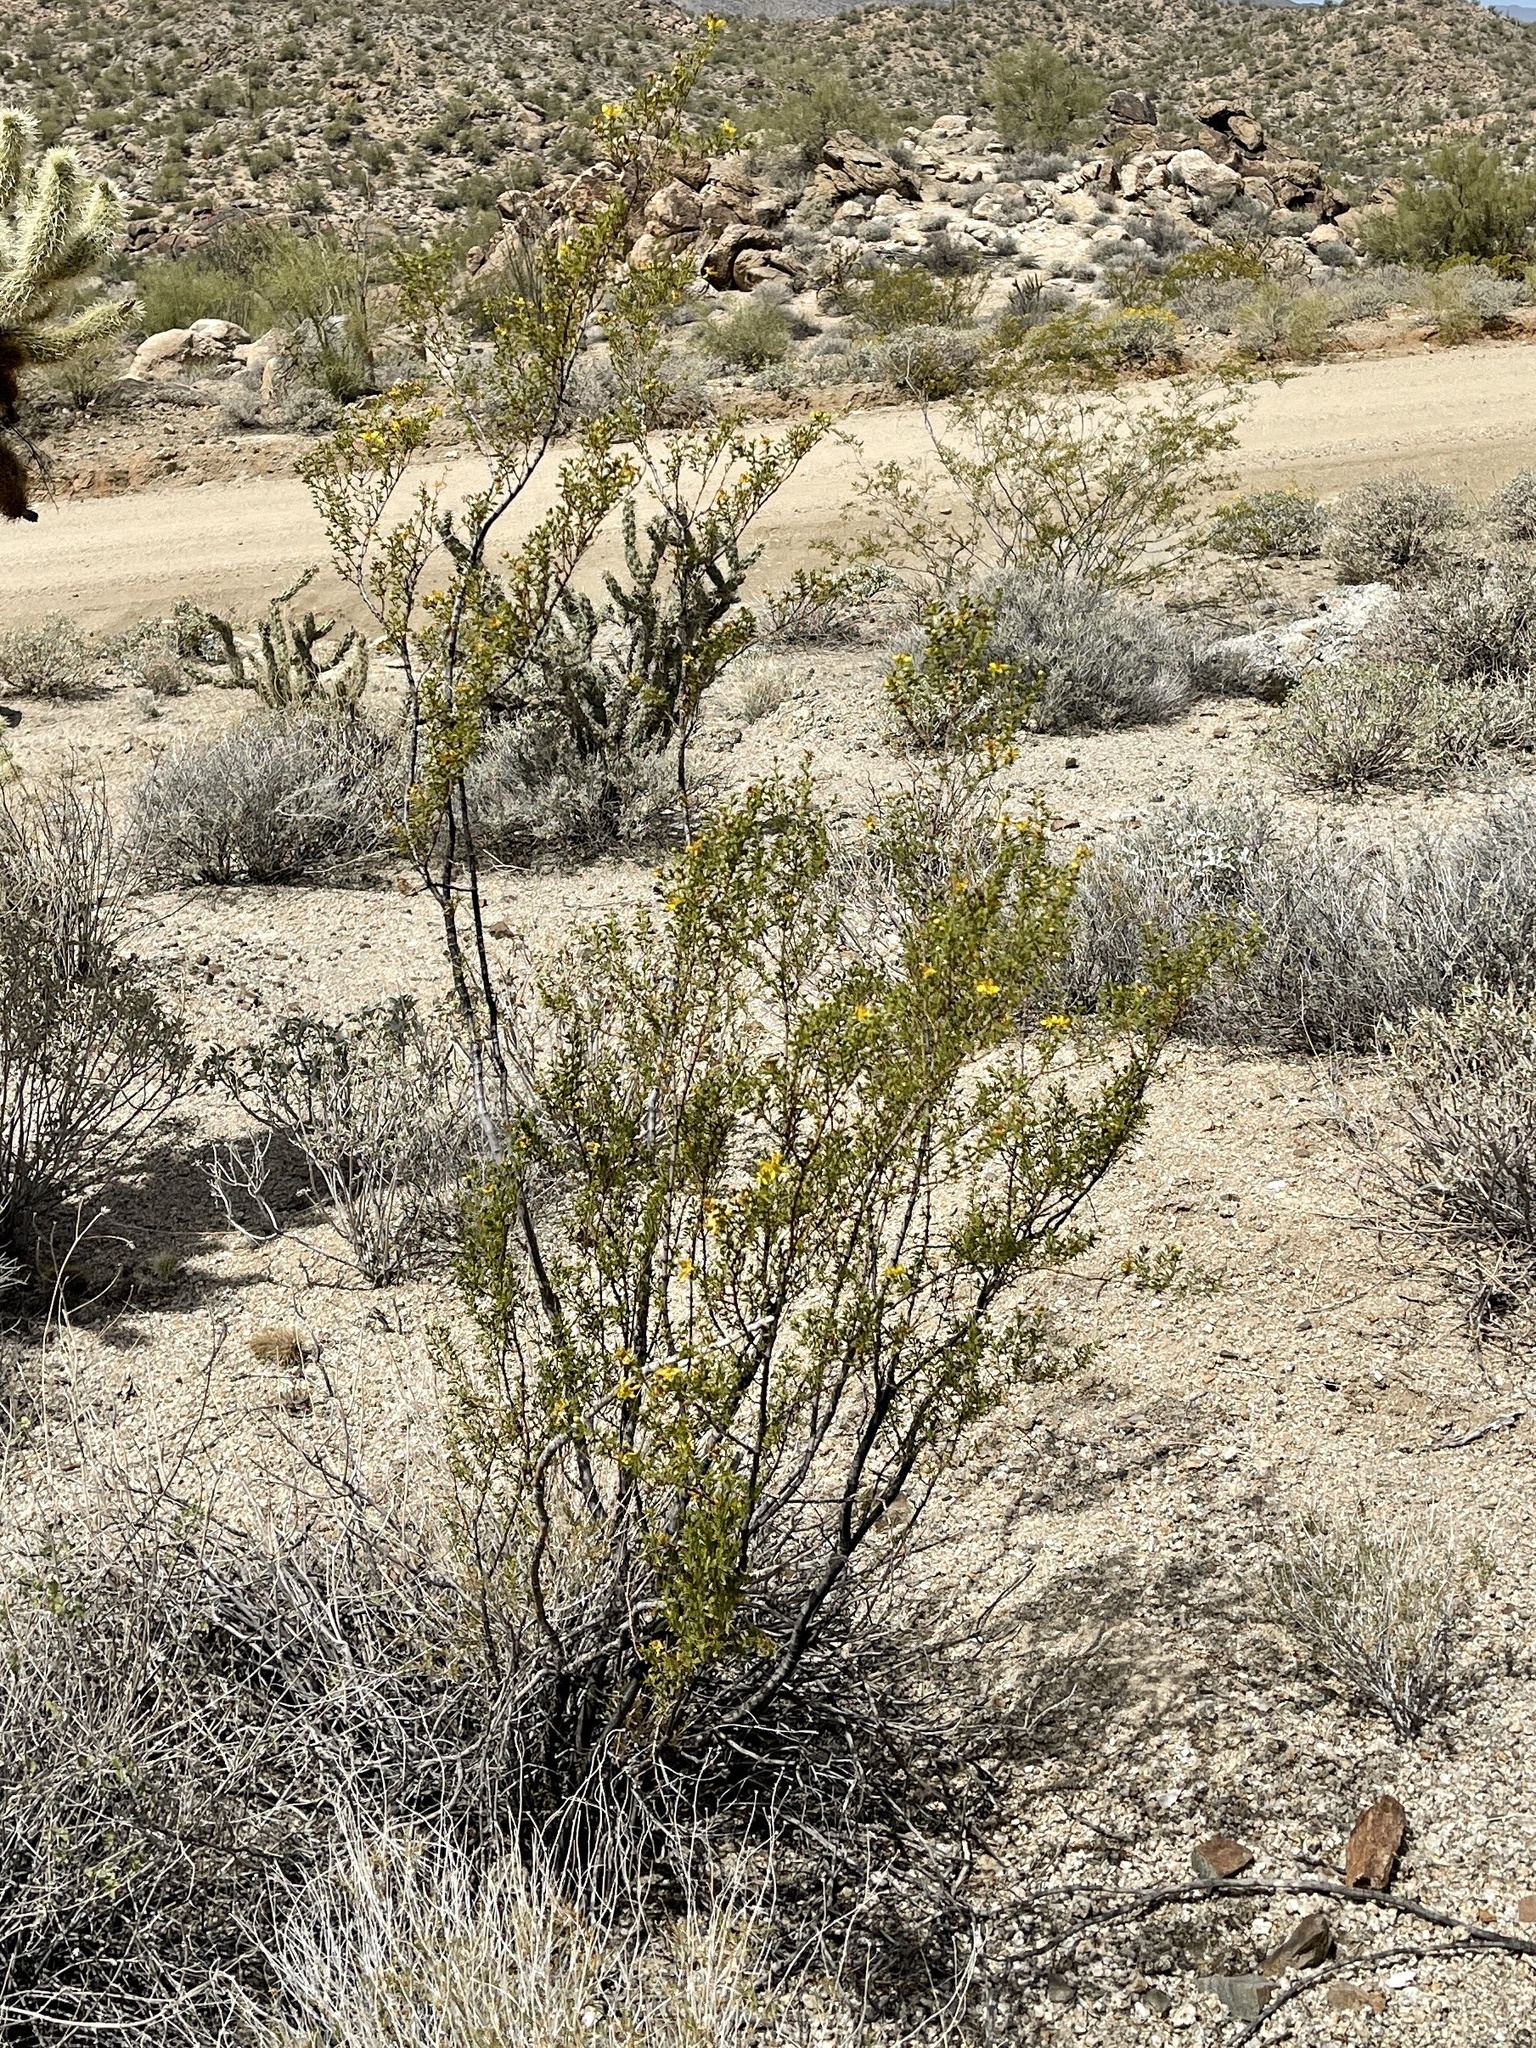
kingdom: Plantae
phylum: Tracheophyta
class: Magnoliopsida
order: Zygophyllales
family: Zygophyllaceae
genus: Larrea
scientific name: Larrea tridentata
